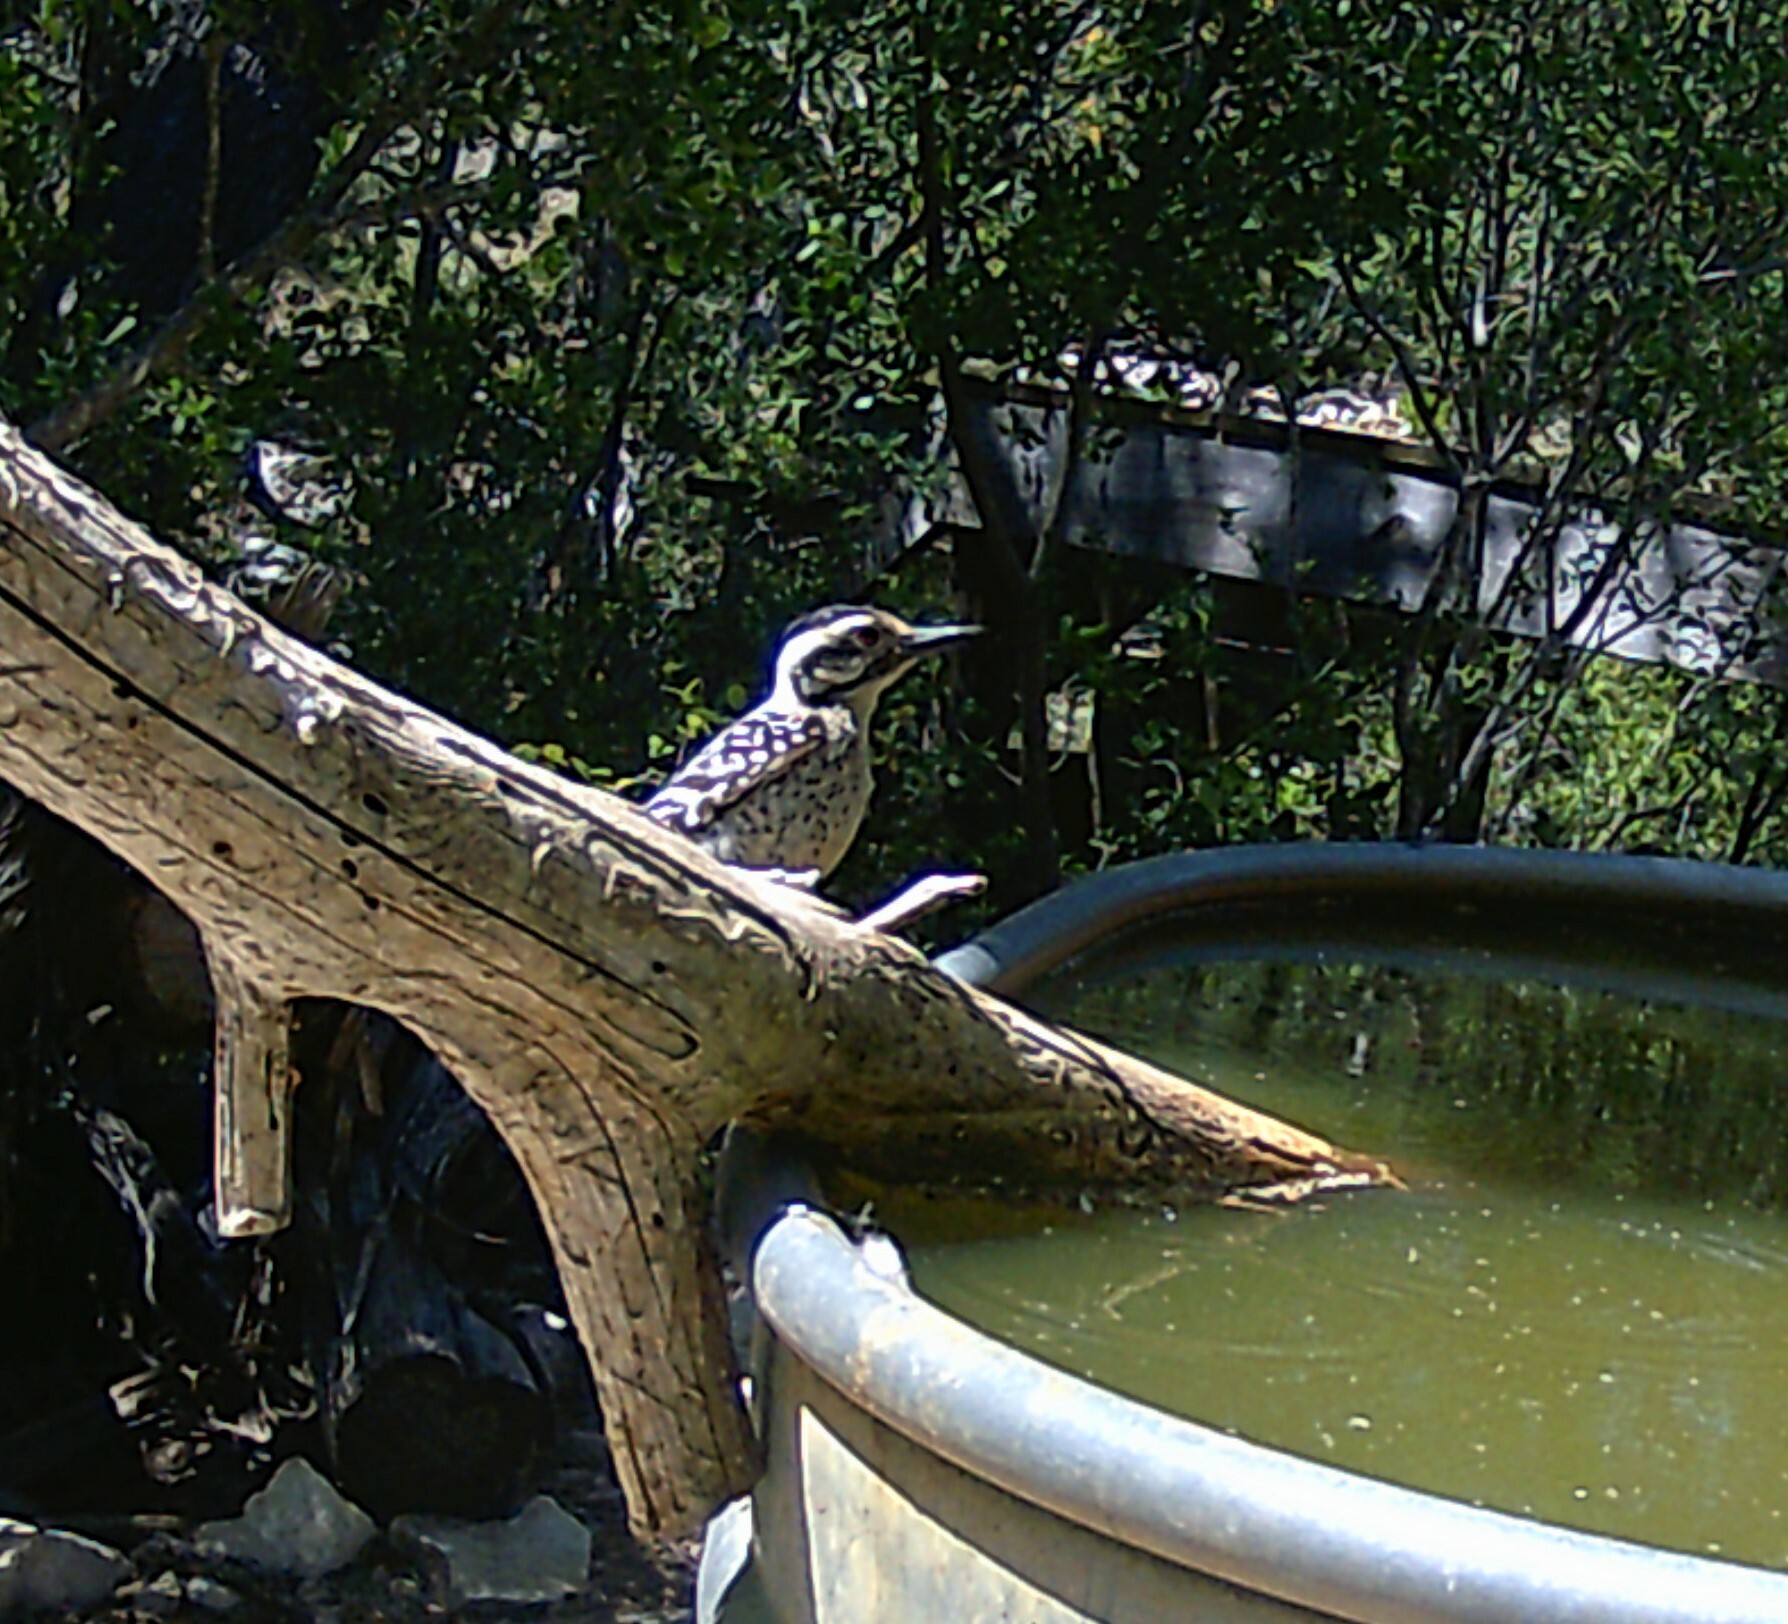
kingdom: Animalia
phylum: Chordata
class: Aves
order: Piciformes
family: Picidae
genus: Dryobates
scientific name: Dryobates scalaris
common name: Ladder-backed woodpecker
